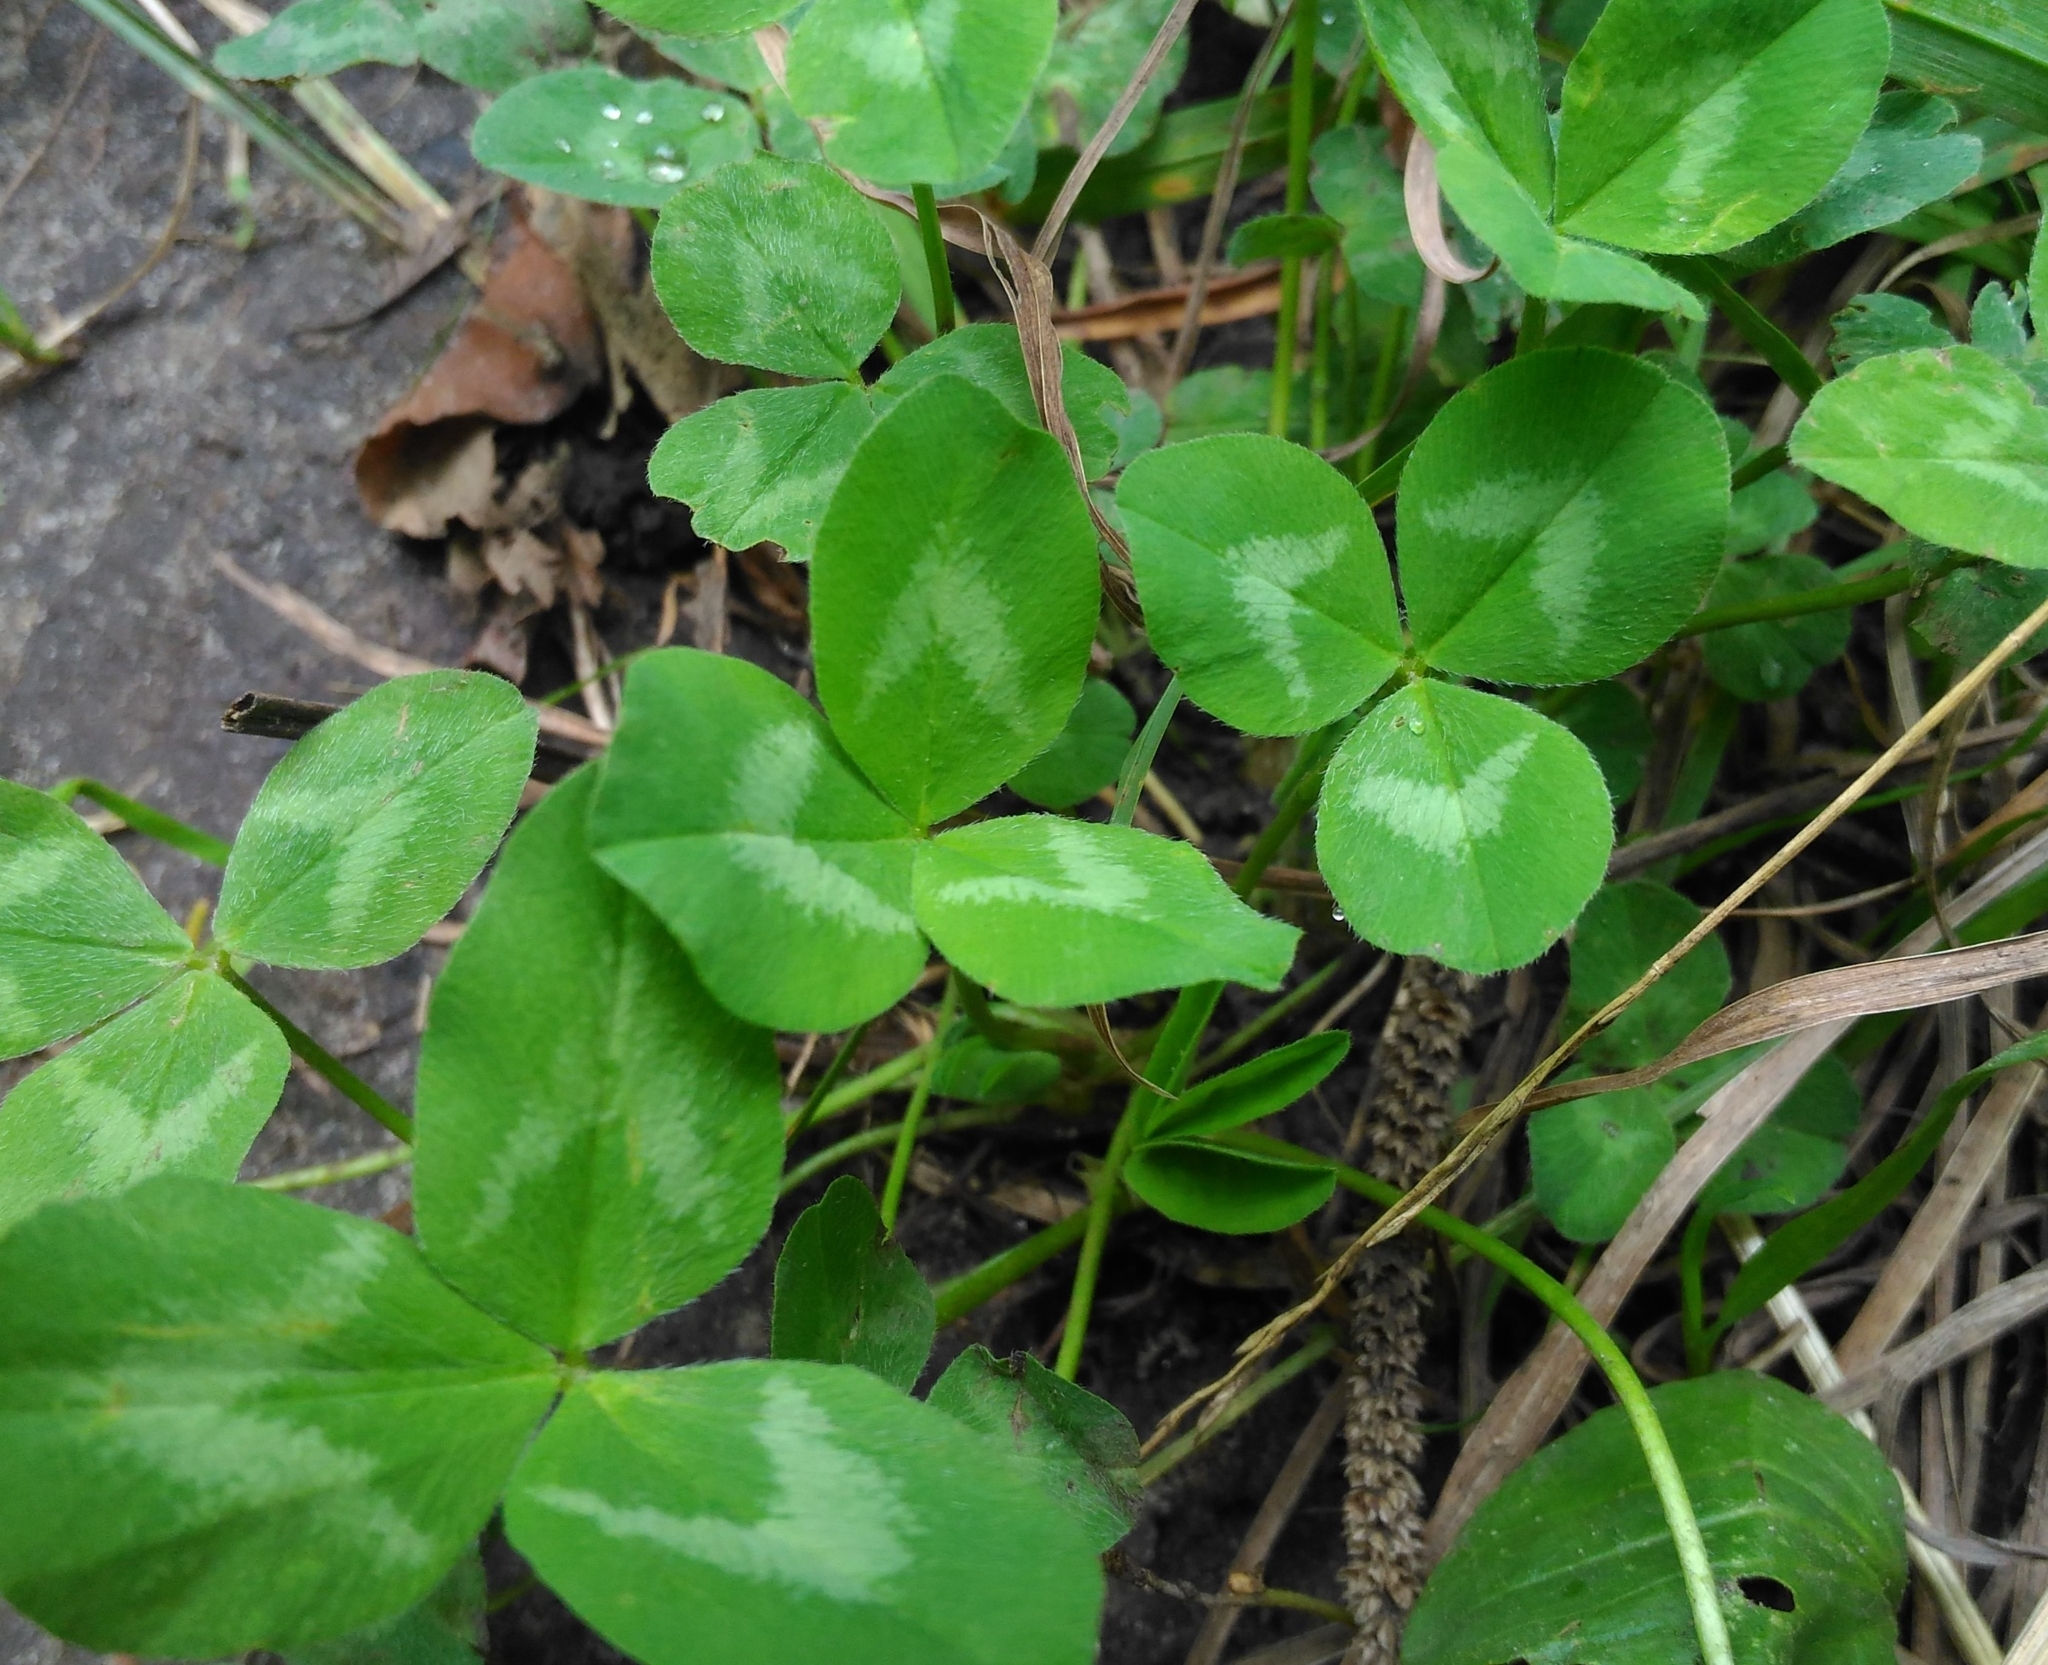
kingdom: Plantae
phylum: Tracheophyta
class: Magnoliopsida
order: Fabales
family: Fabaceae
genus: Trifolium
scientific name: Trifolium pratense
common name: Red clover
